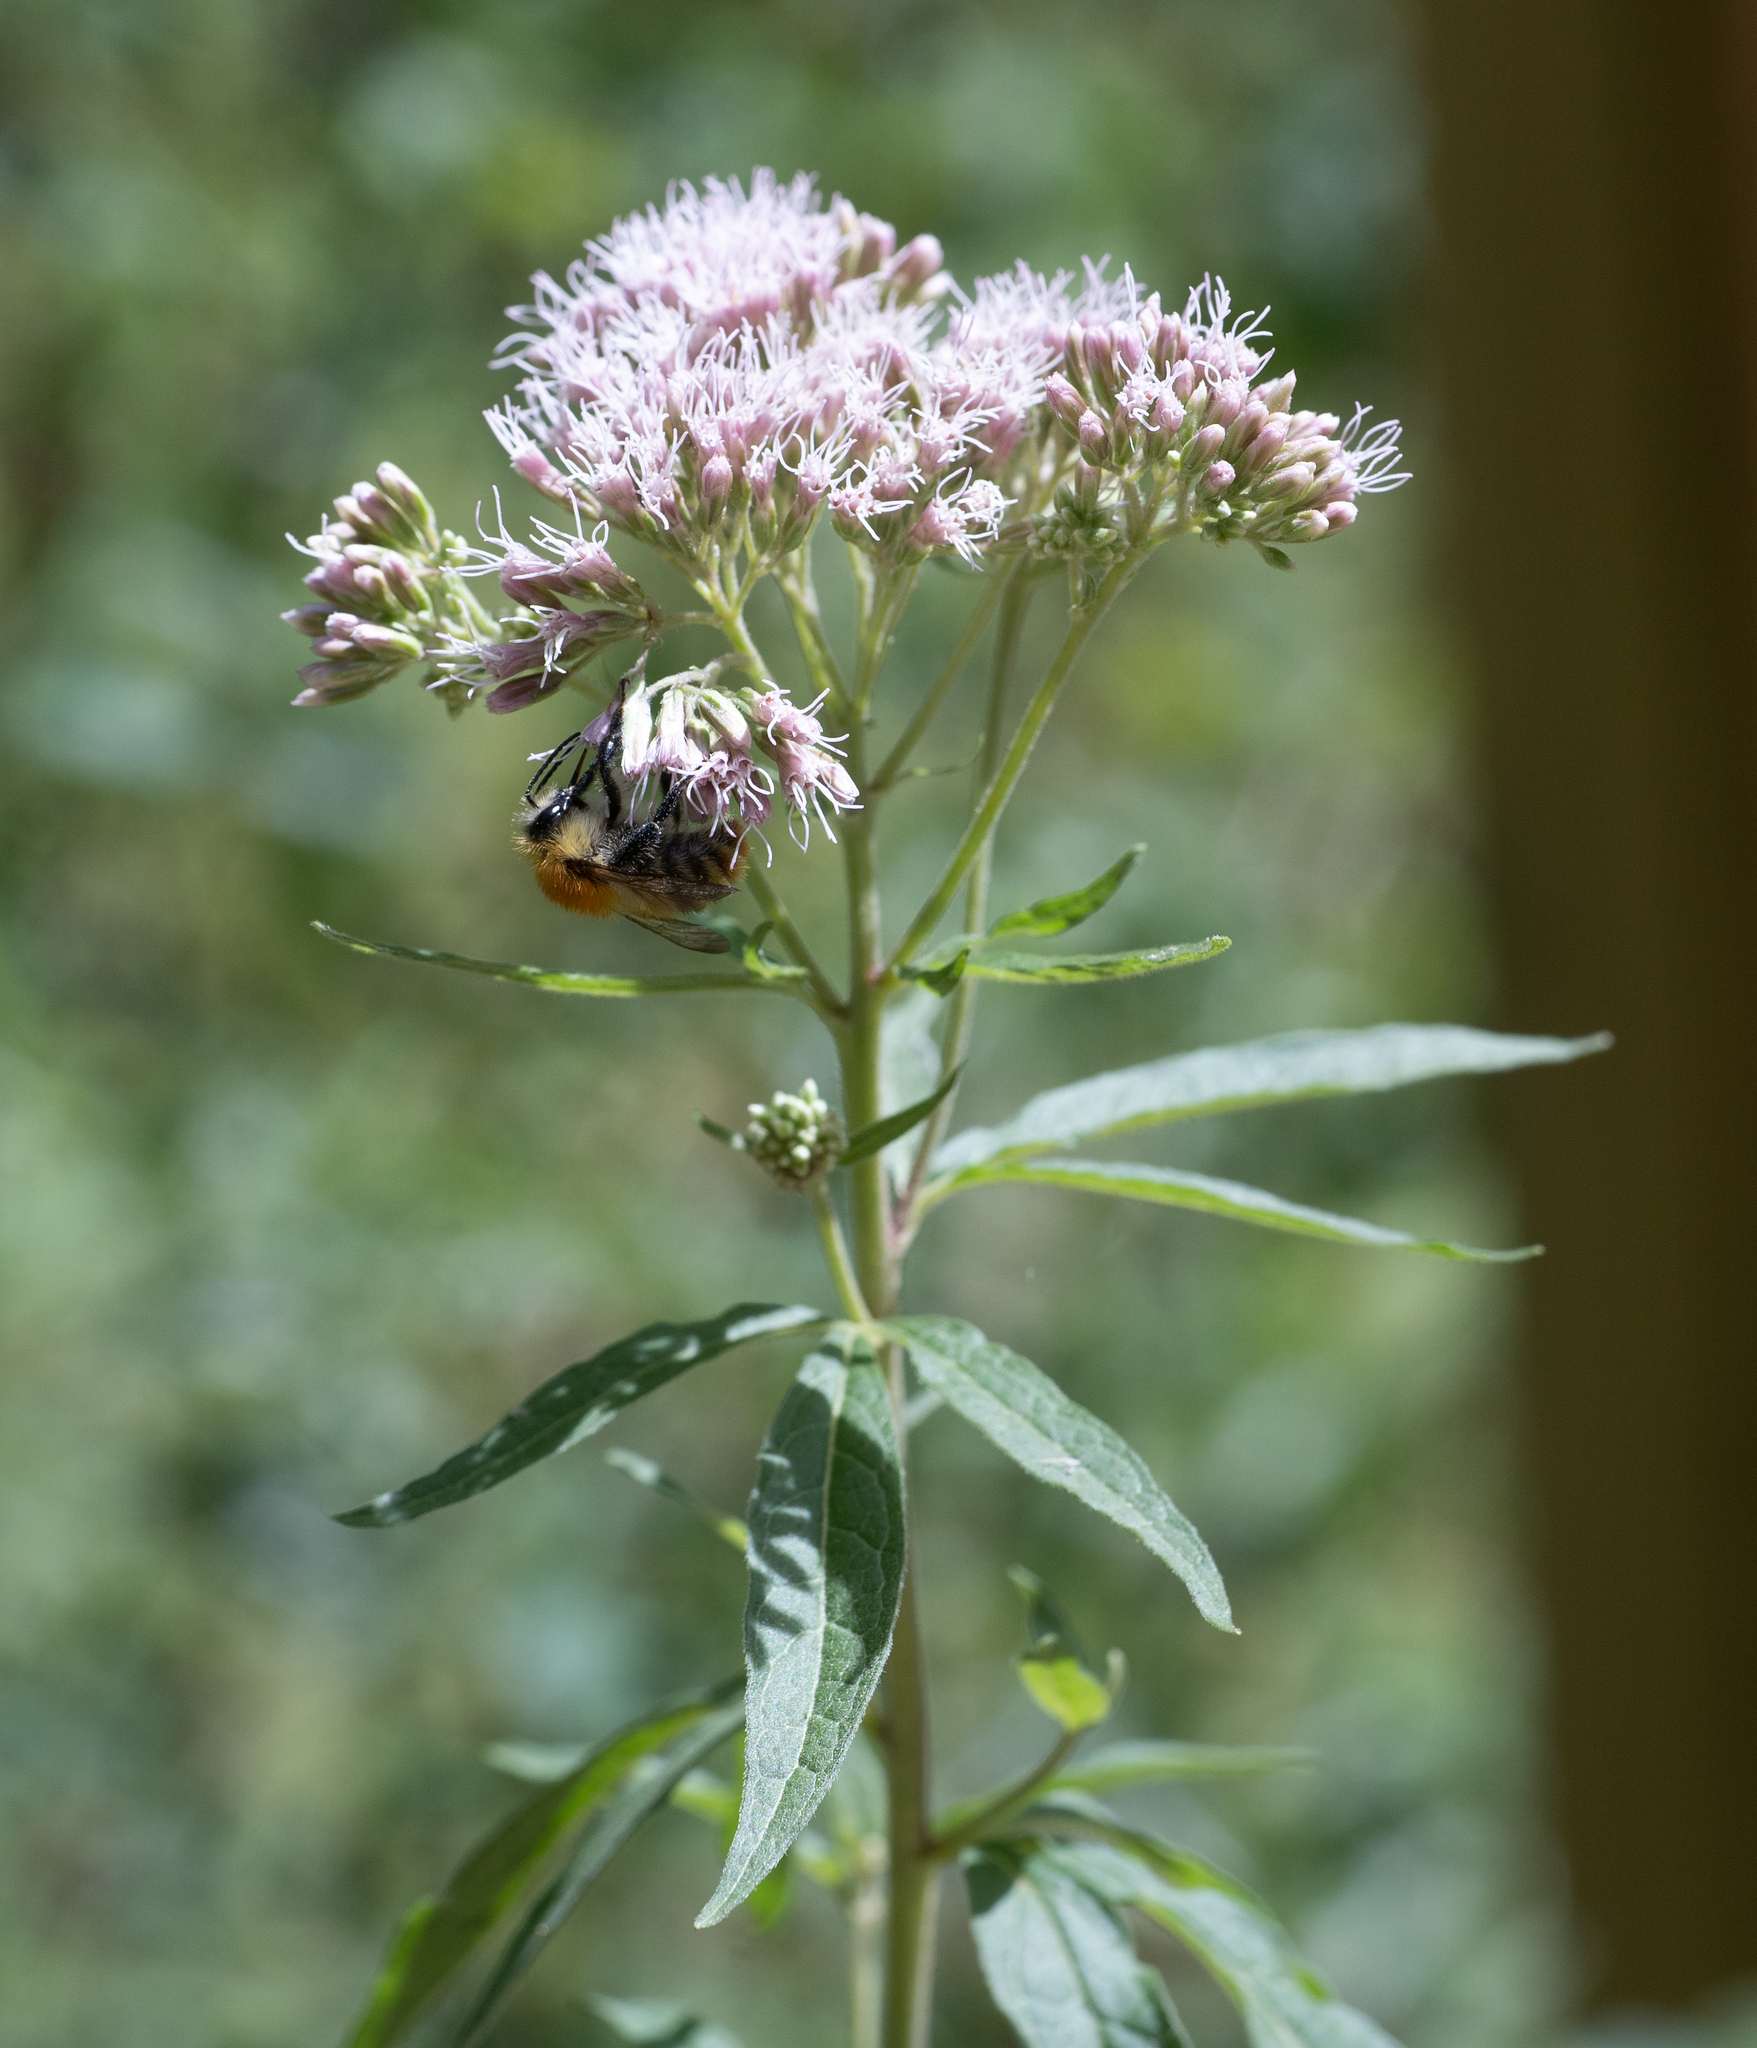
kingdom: Plantae
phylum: Tracheophyta
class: Magnoliopsida
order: Asterales
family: Asteraceae
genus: Eupatorium
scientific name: Eupatorium cannabinum
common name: Hemp-agrimony
